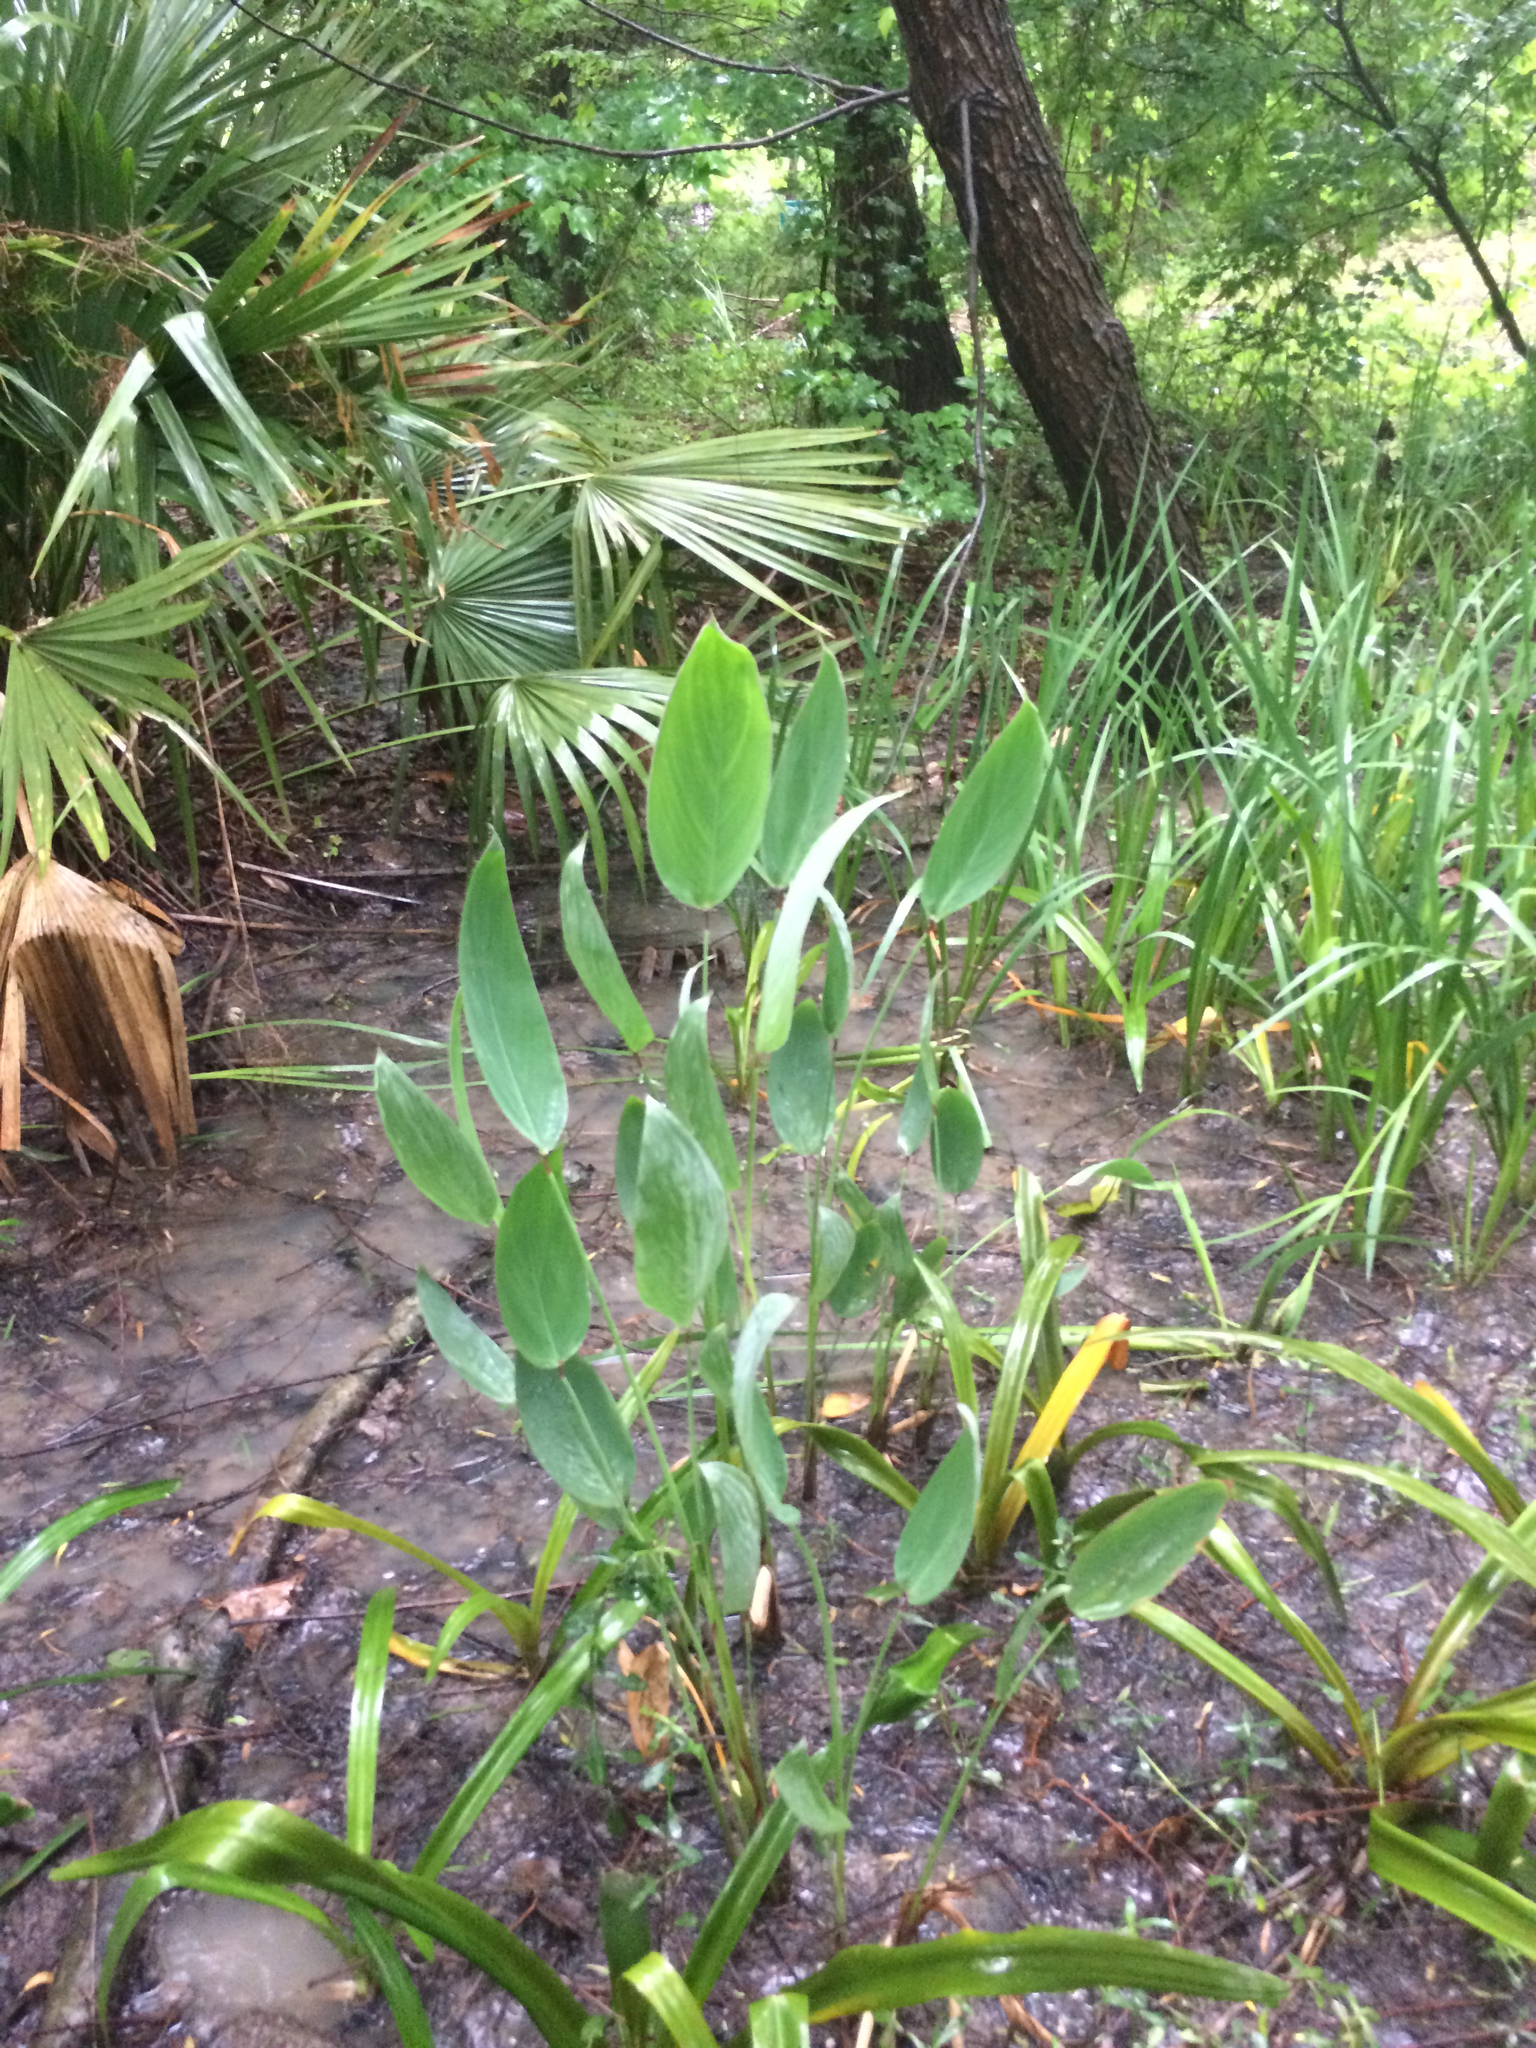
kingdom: Plantae
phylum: Tracheophyta
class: Liliopsida
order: Zingiberales
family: Marantaceae
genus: Thalia
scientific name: Thalia dealbata
